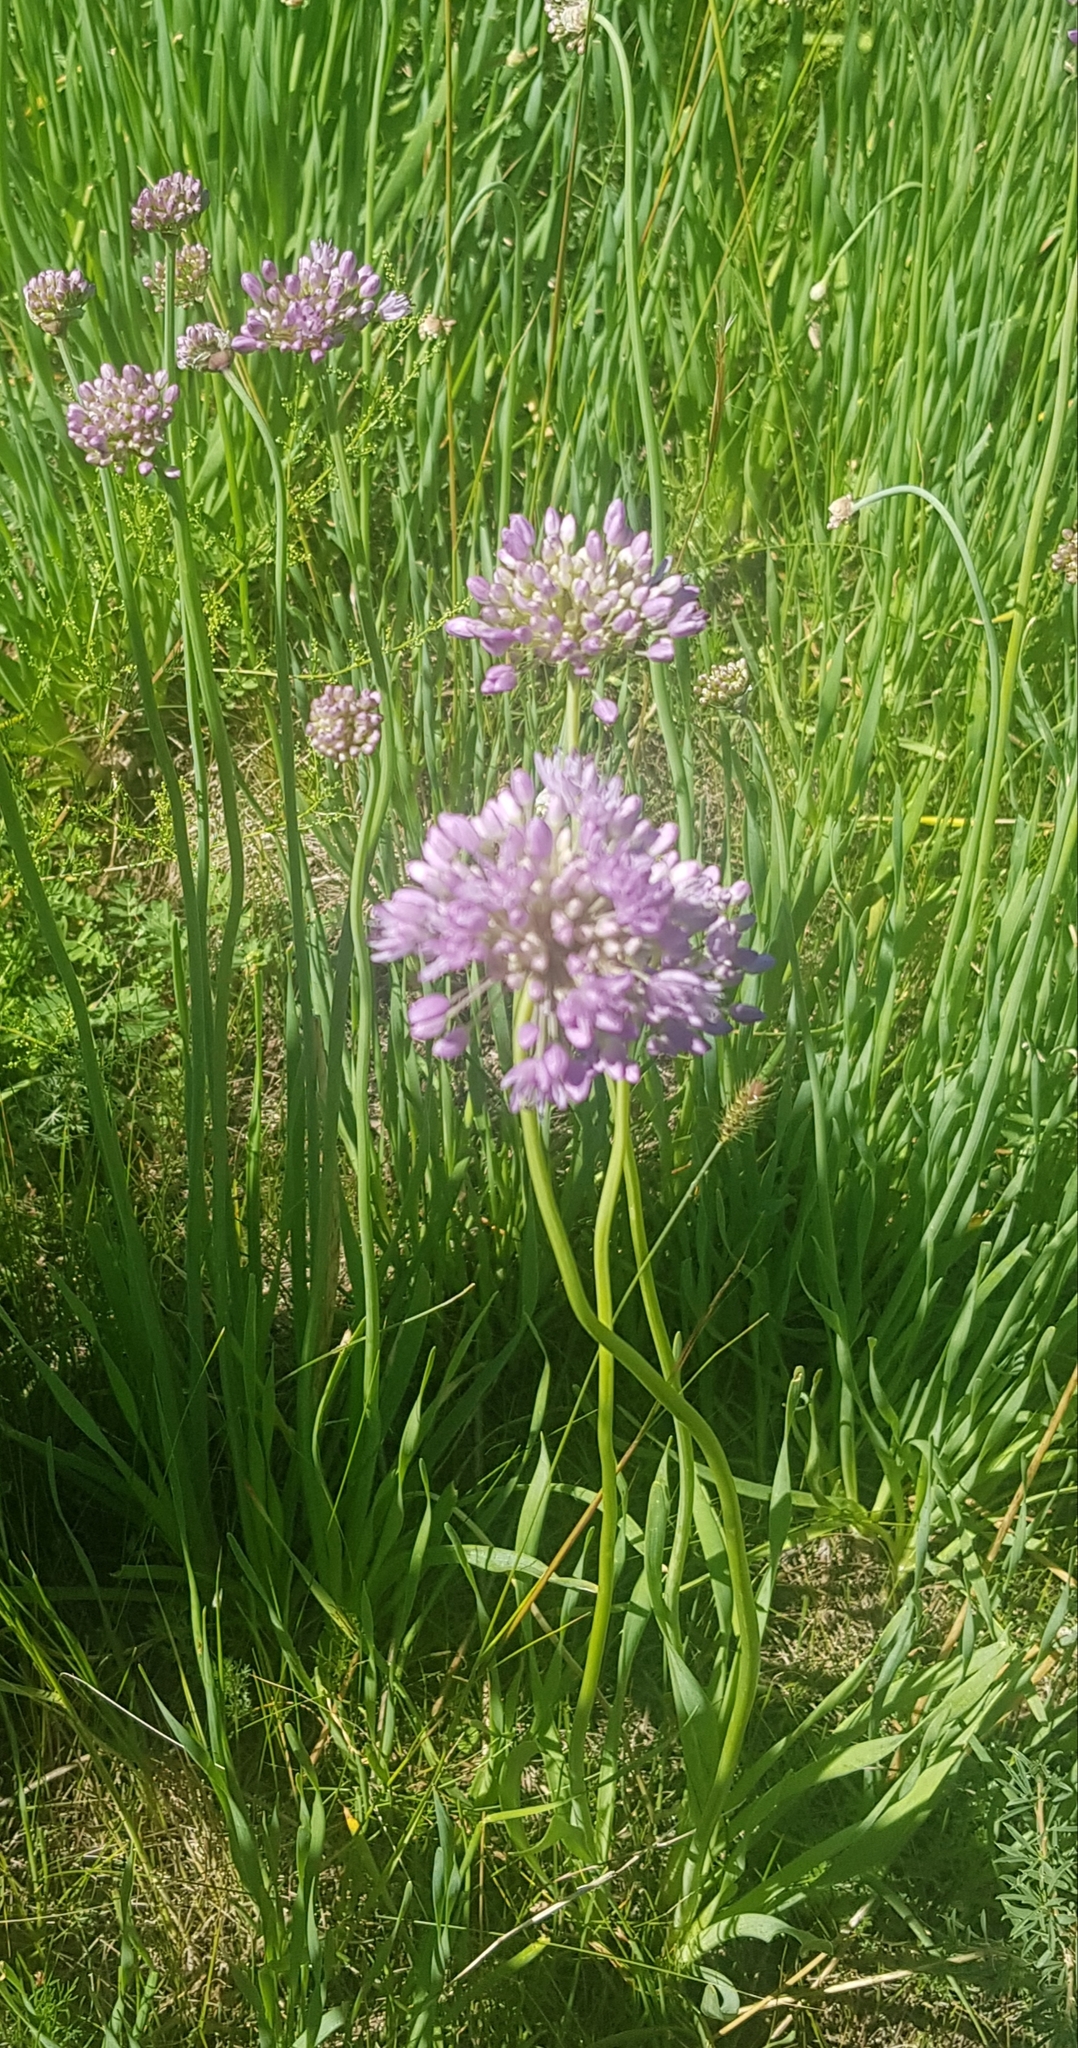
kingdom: Plantae
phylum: Tracheophyta
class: Liliopsida
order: Asparagales
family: Amaryllidaceae
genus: Allium
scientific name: Allium senescens
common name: German garlic
